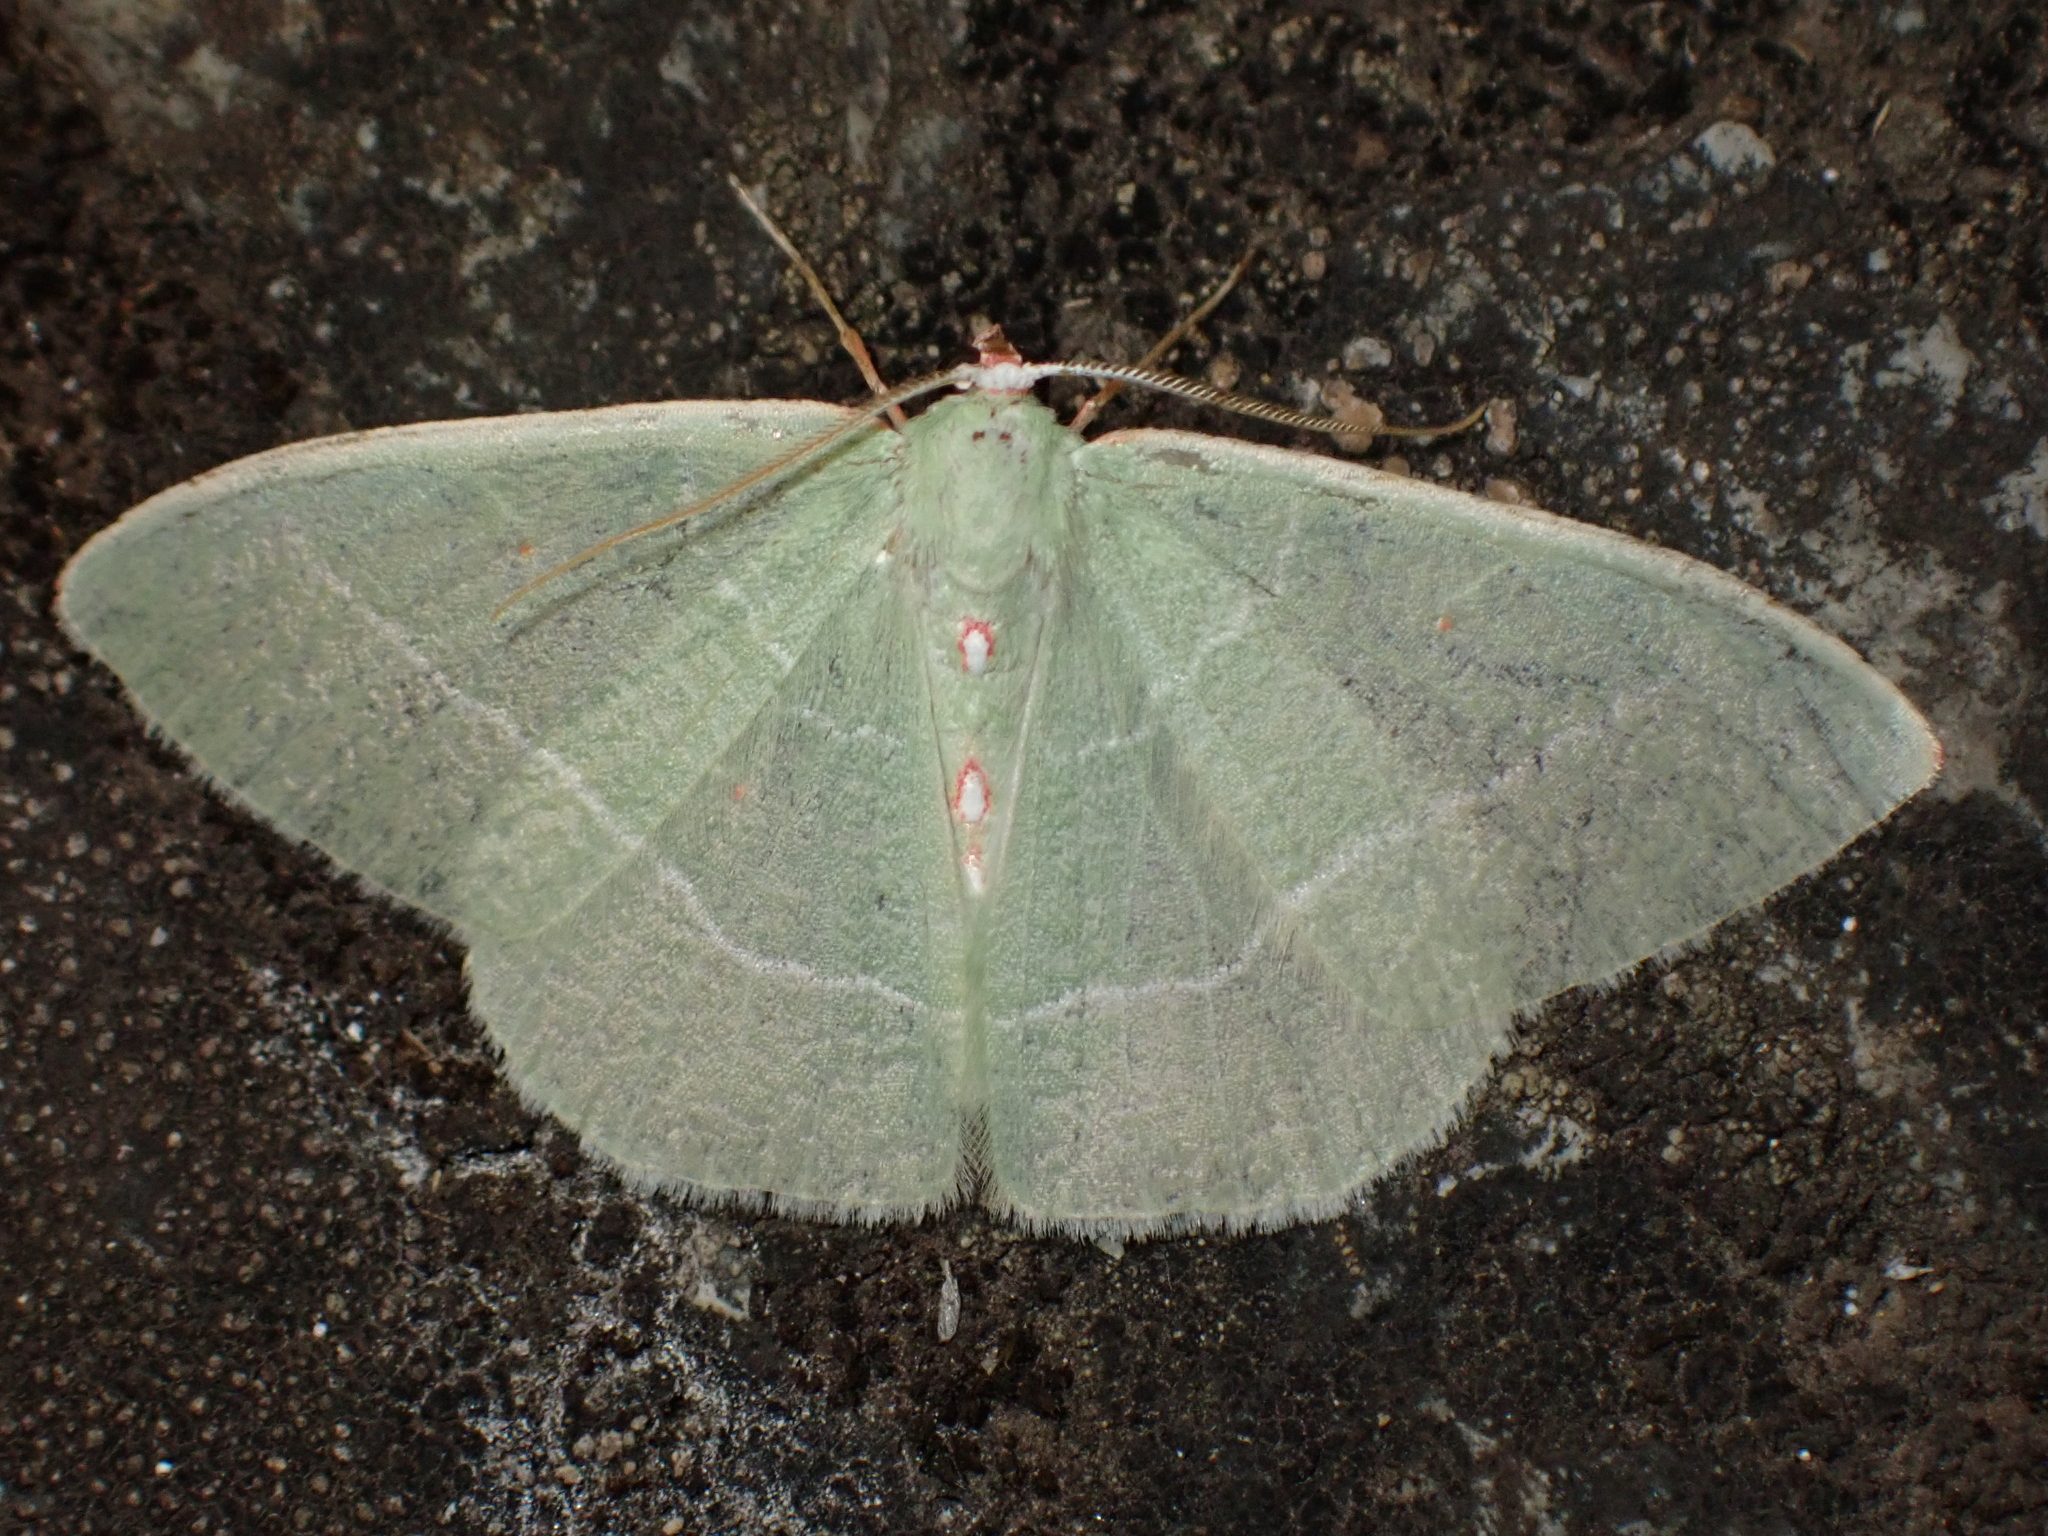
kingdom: Animalia
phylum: Arthropoda
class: Insecta
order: Lepidoptera
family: Geometridae
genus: Nemoria
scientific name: Nemoria darwiniata
